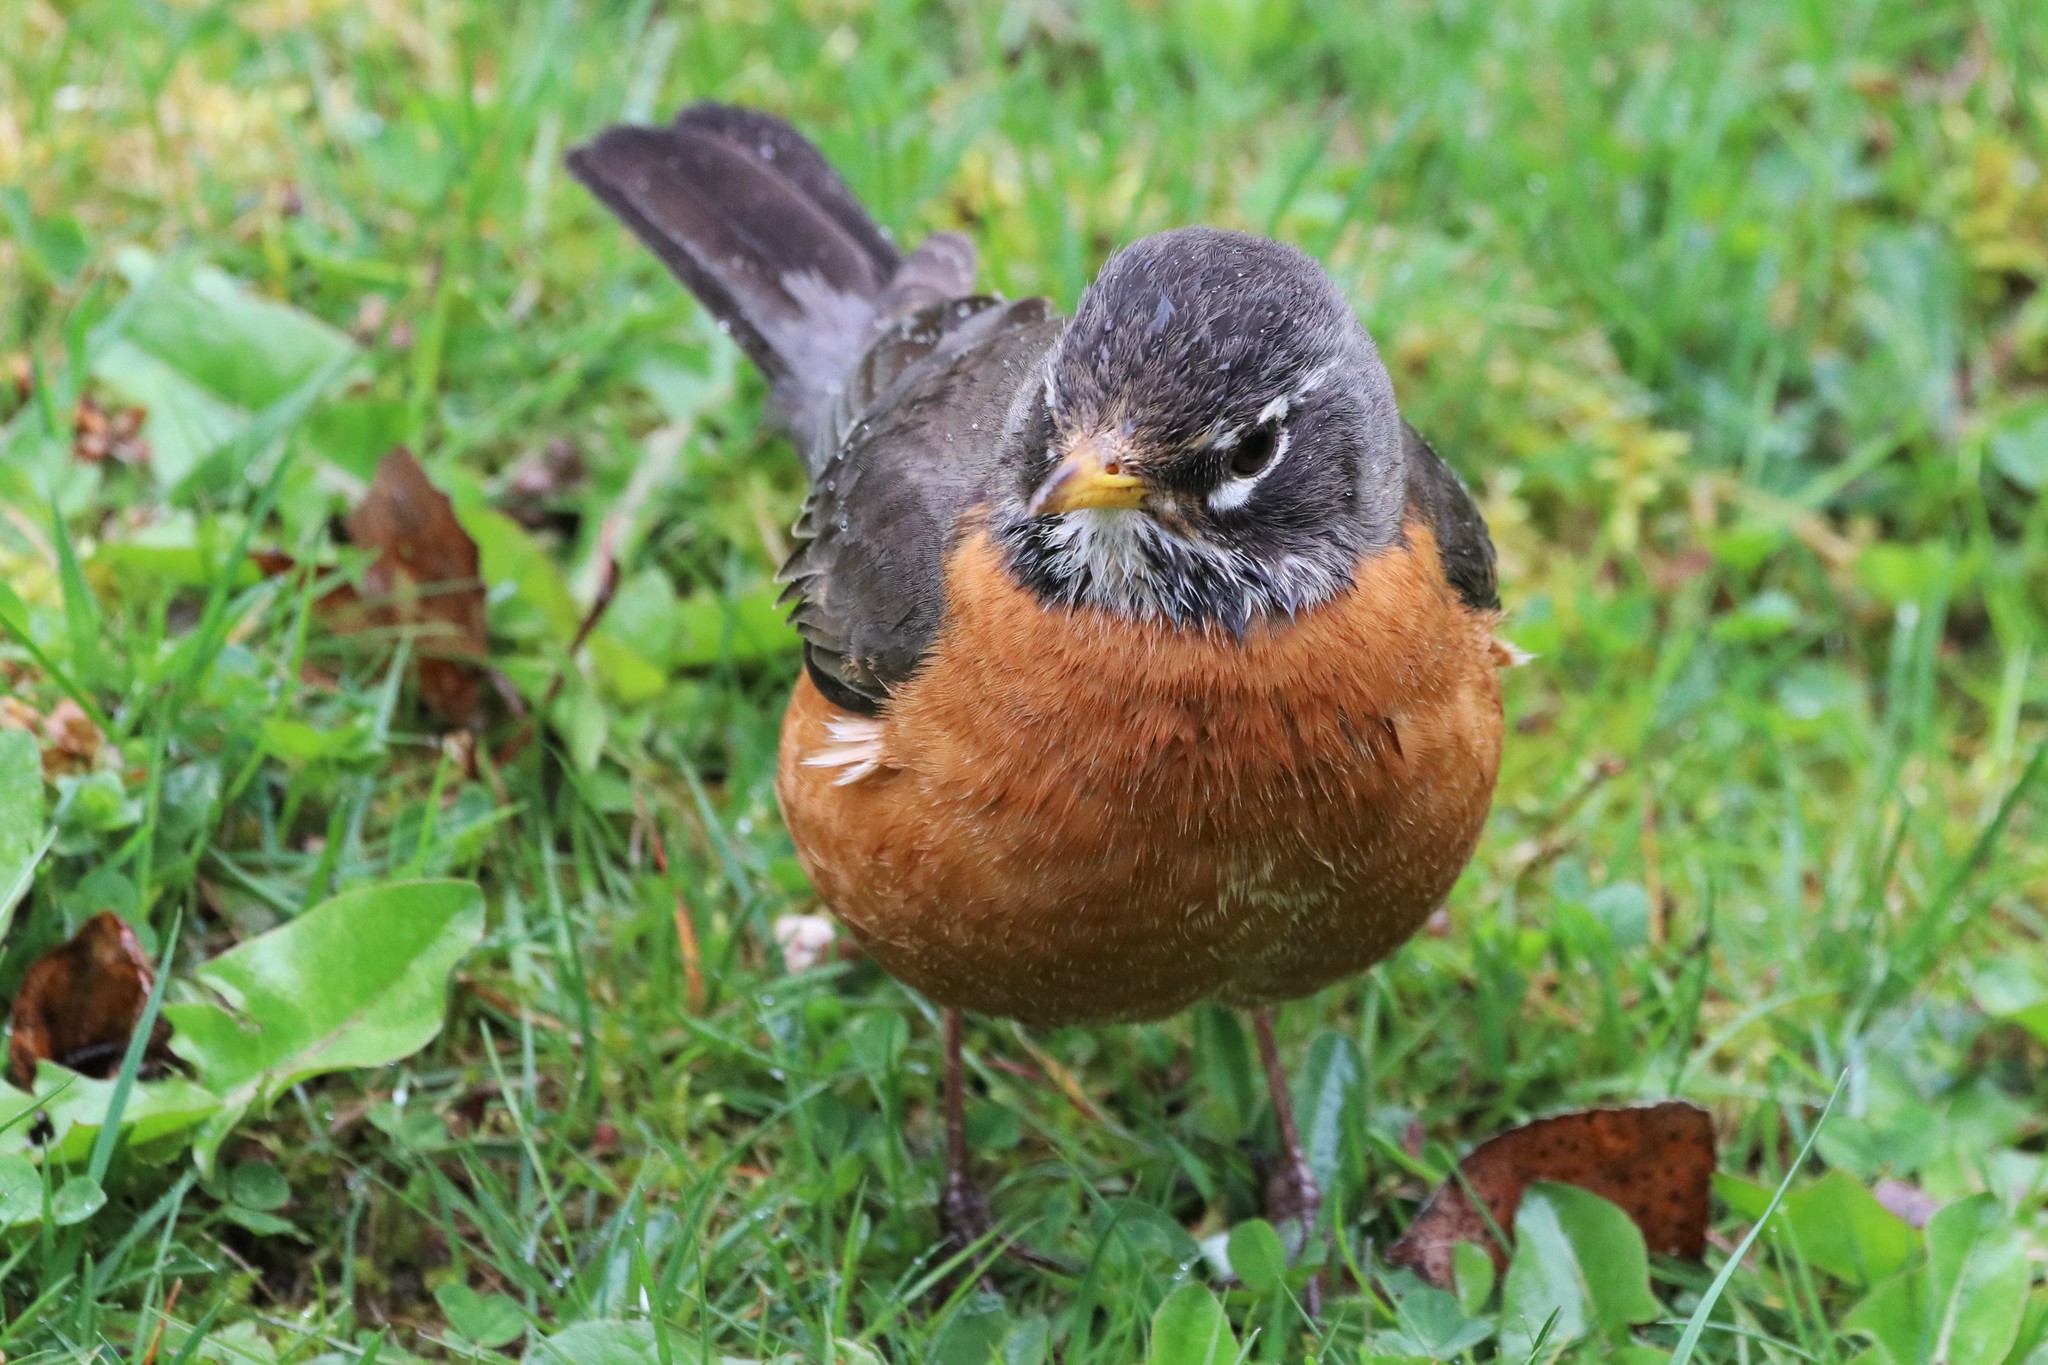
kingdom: Animalia
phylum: Chordata
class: Aves
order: Passeriformes
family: Turdidae
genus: Turdus
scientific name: Turdus migratorius
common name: American robin
